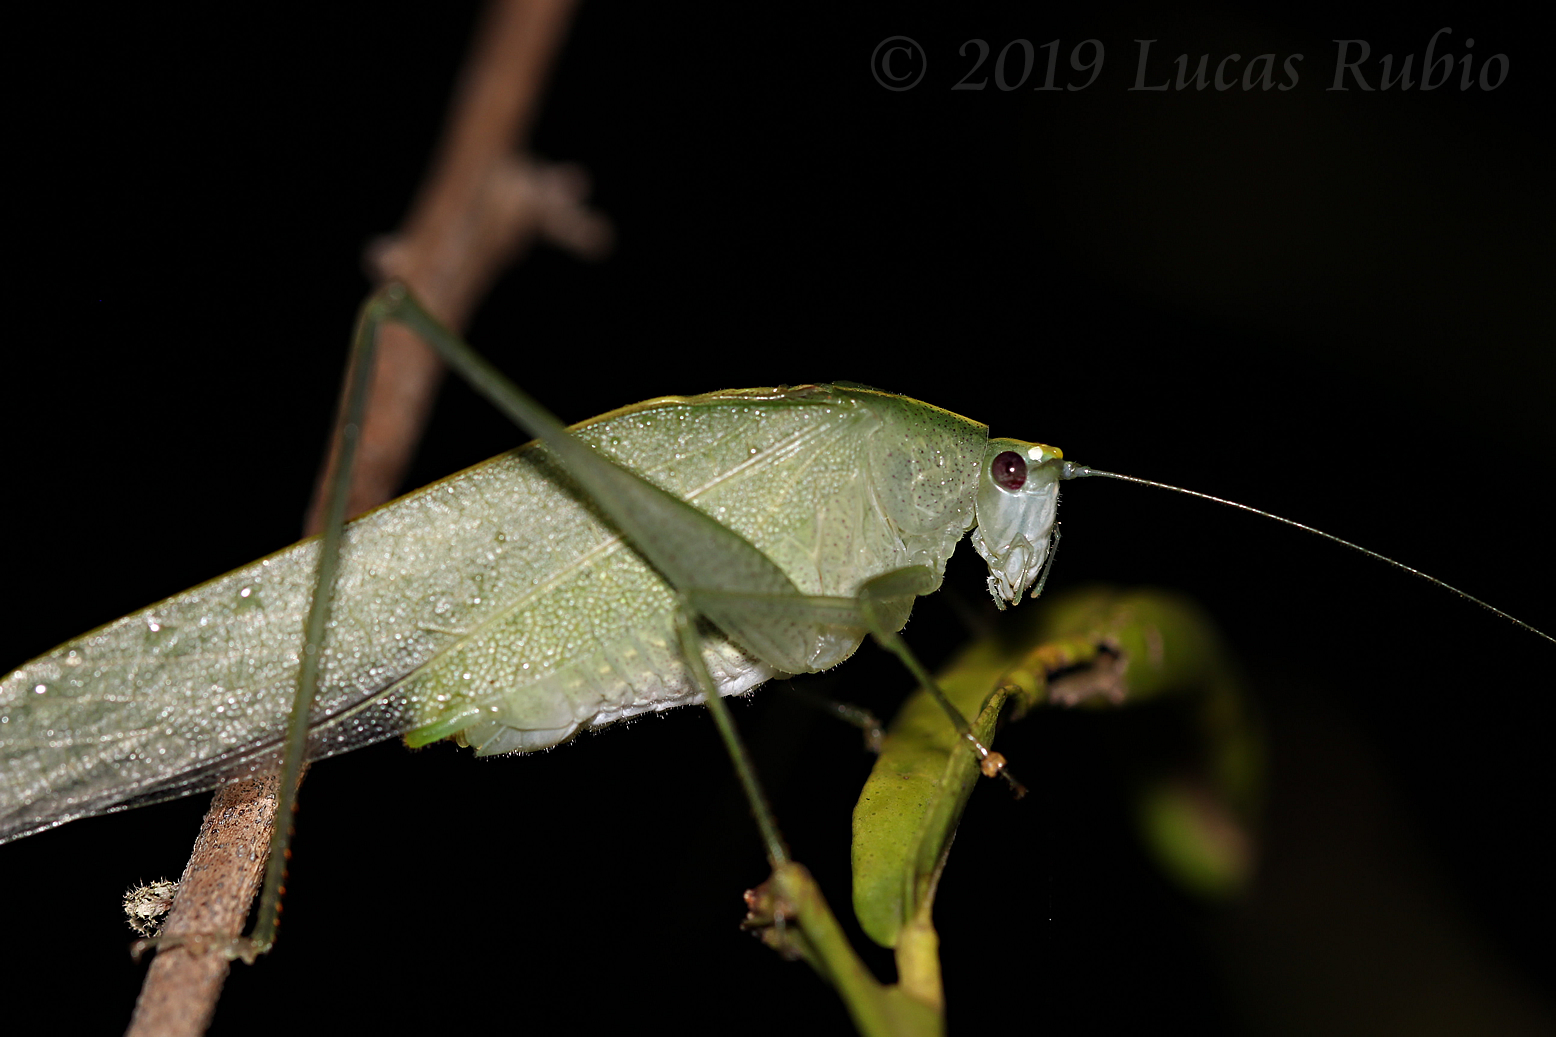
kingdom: Animalia
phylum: Arthropoda
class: Insecta
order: Orthoptera
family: Tettigoniidae
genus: Grammadera
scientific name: Grammadera clara
